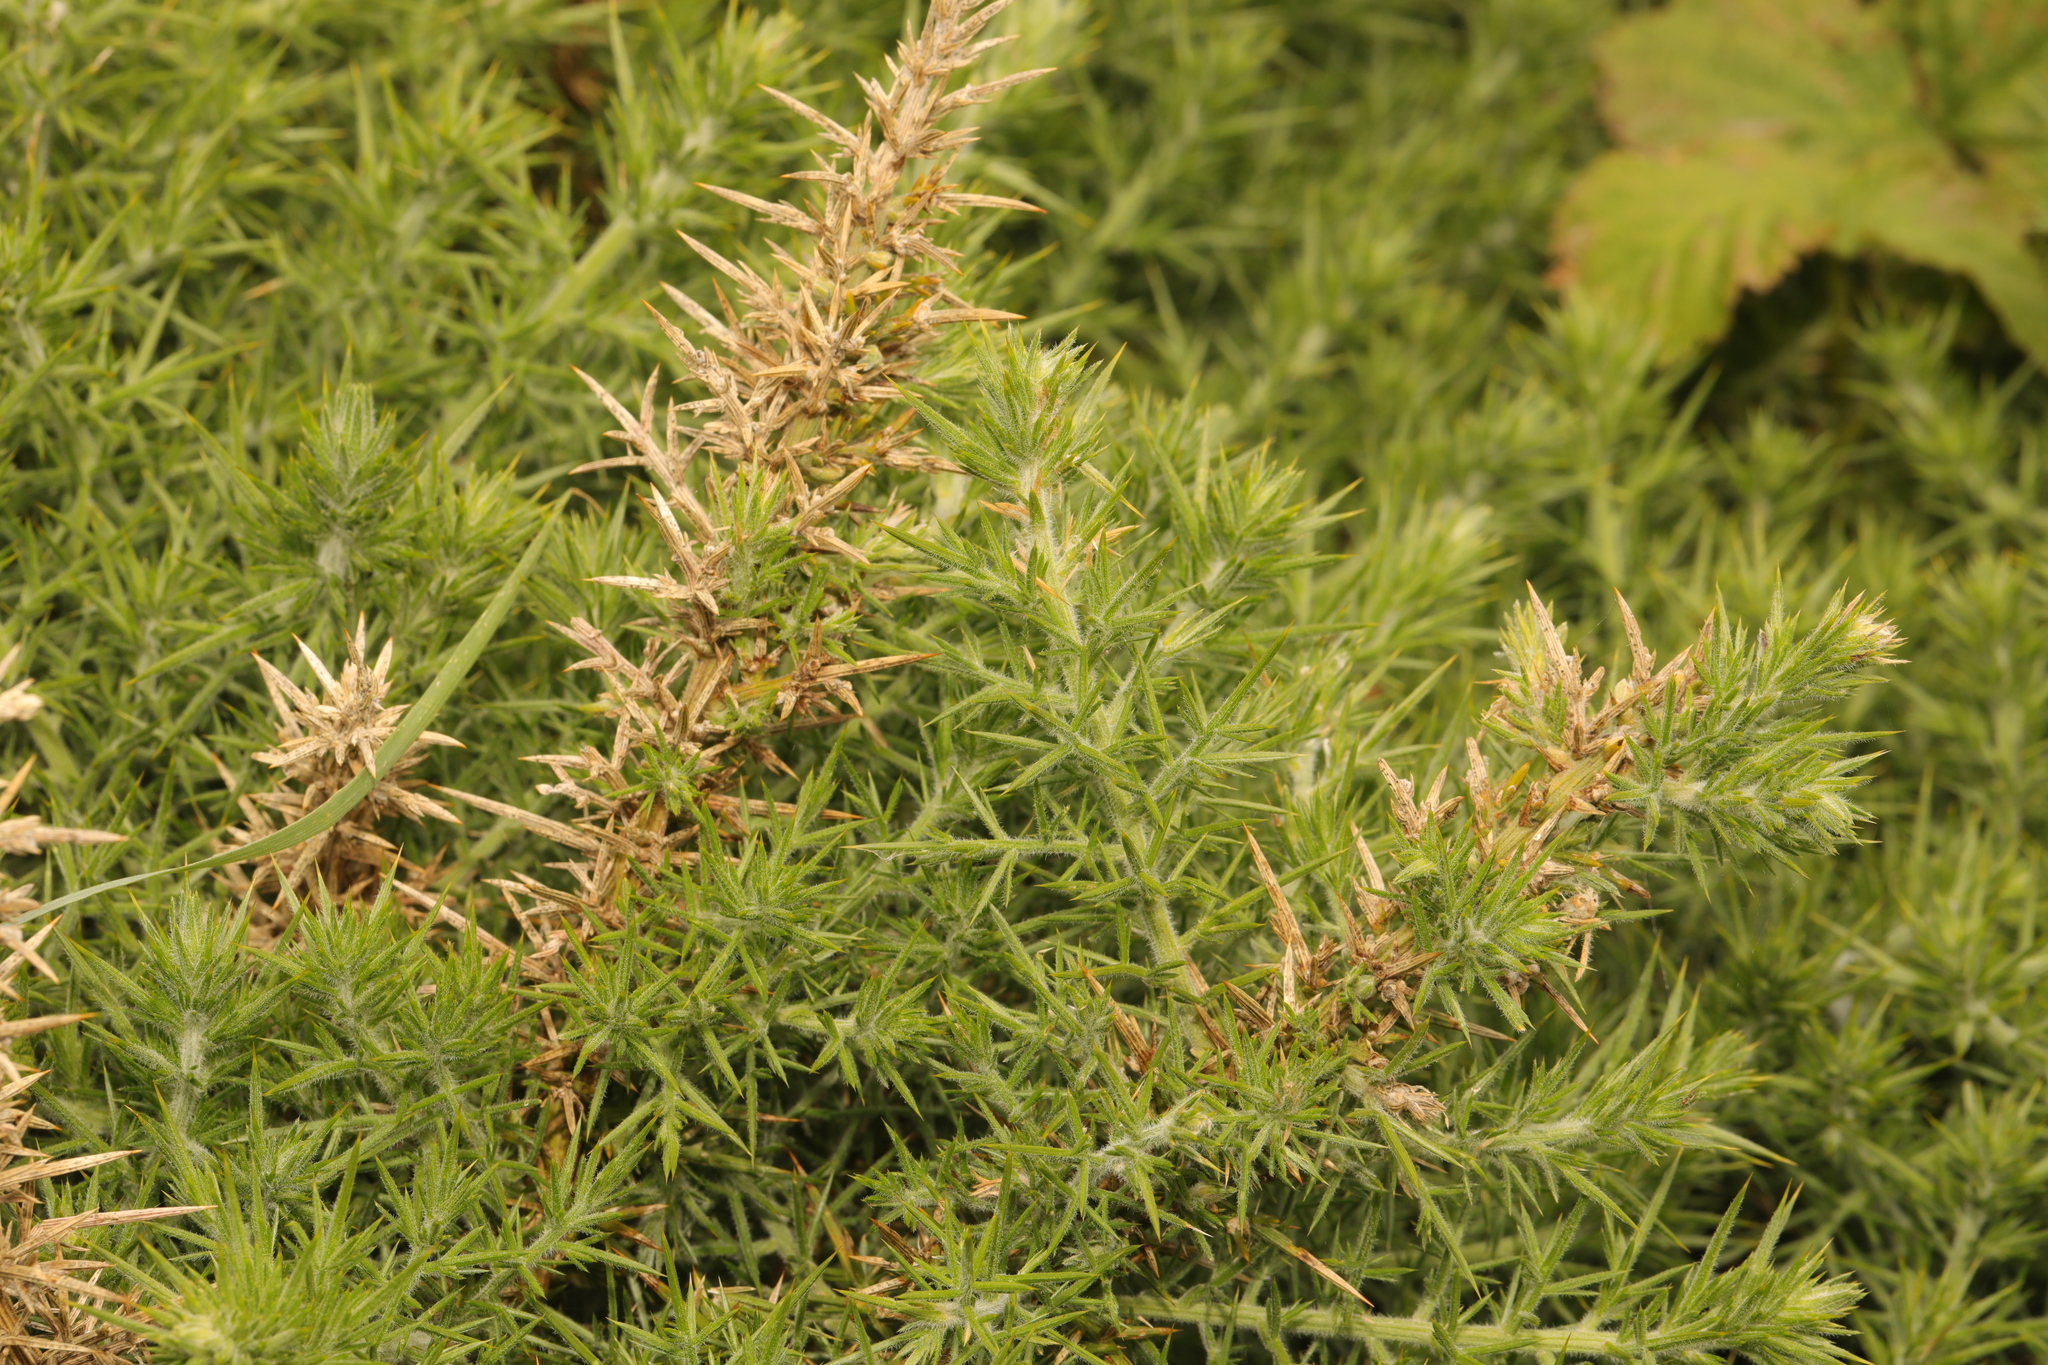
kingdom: Plantae
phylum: Tracheophyta
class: Magnoliopsida
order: Fabales
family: Fabaceae
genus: Ulex
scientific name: Ulex europaeus
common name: Common gorse
